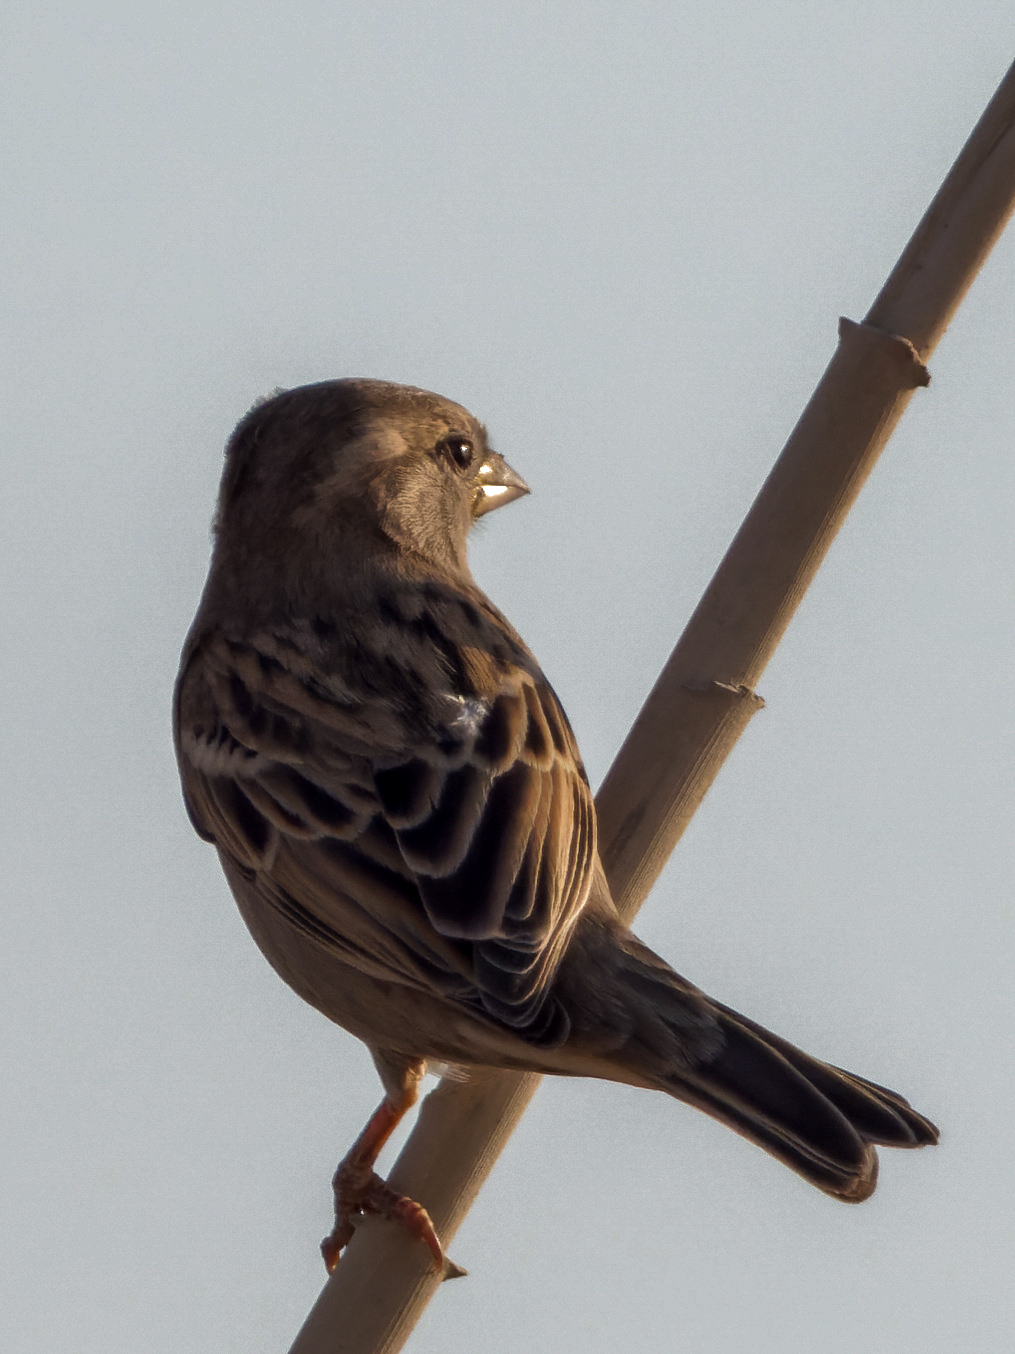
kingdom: Animalia
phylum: Chordata
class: Aves
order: Passeriformes
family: Passeridae
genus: Passer
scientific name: Passer domesticus
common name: House sparrow
